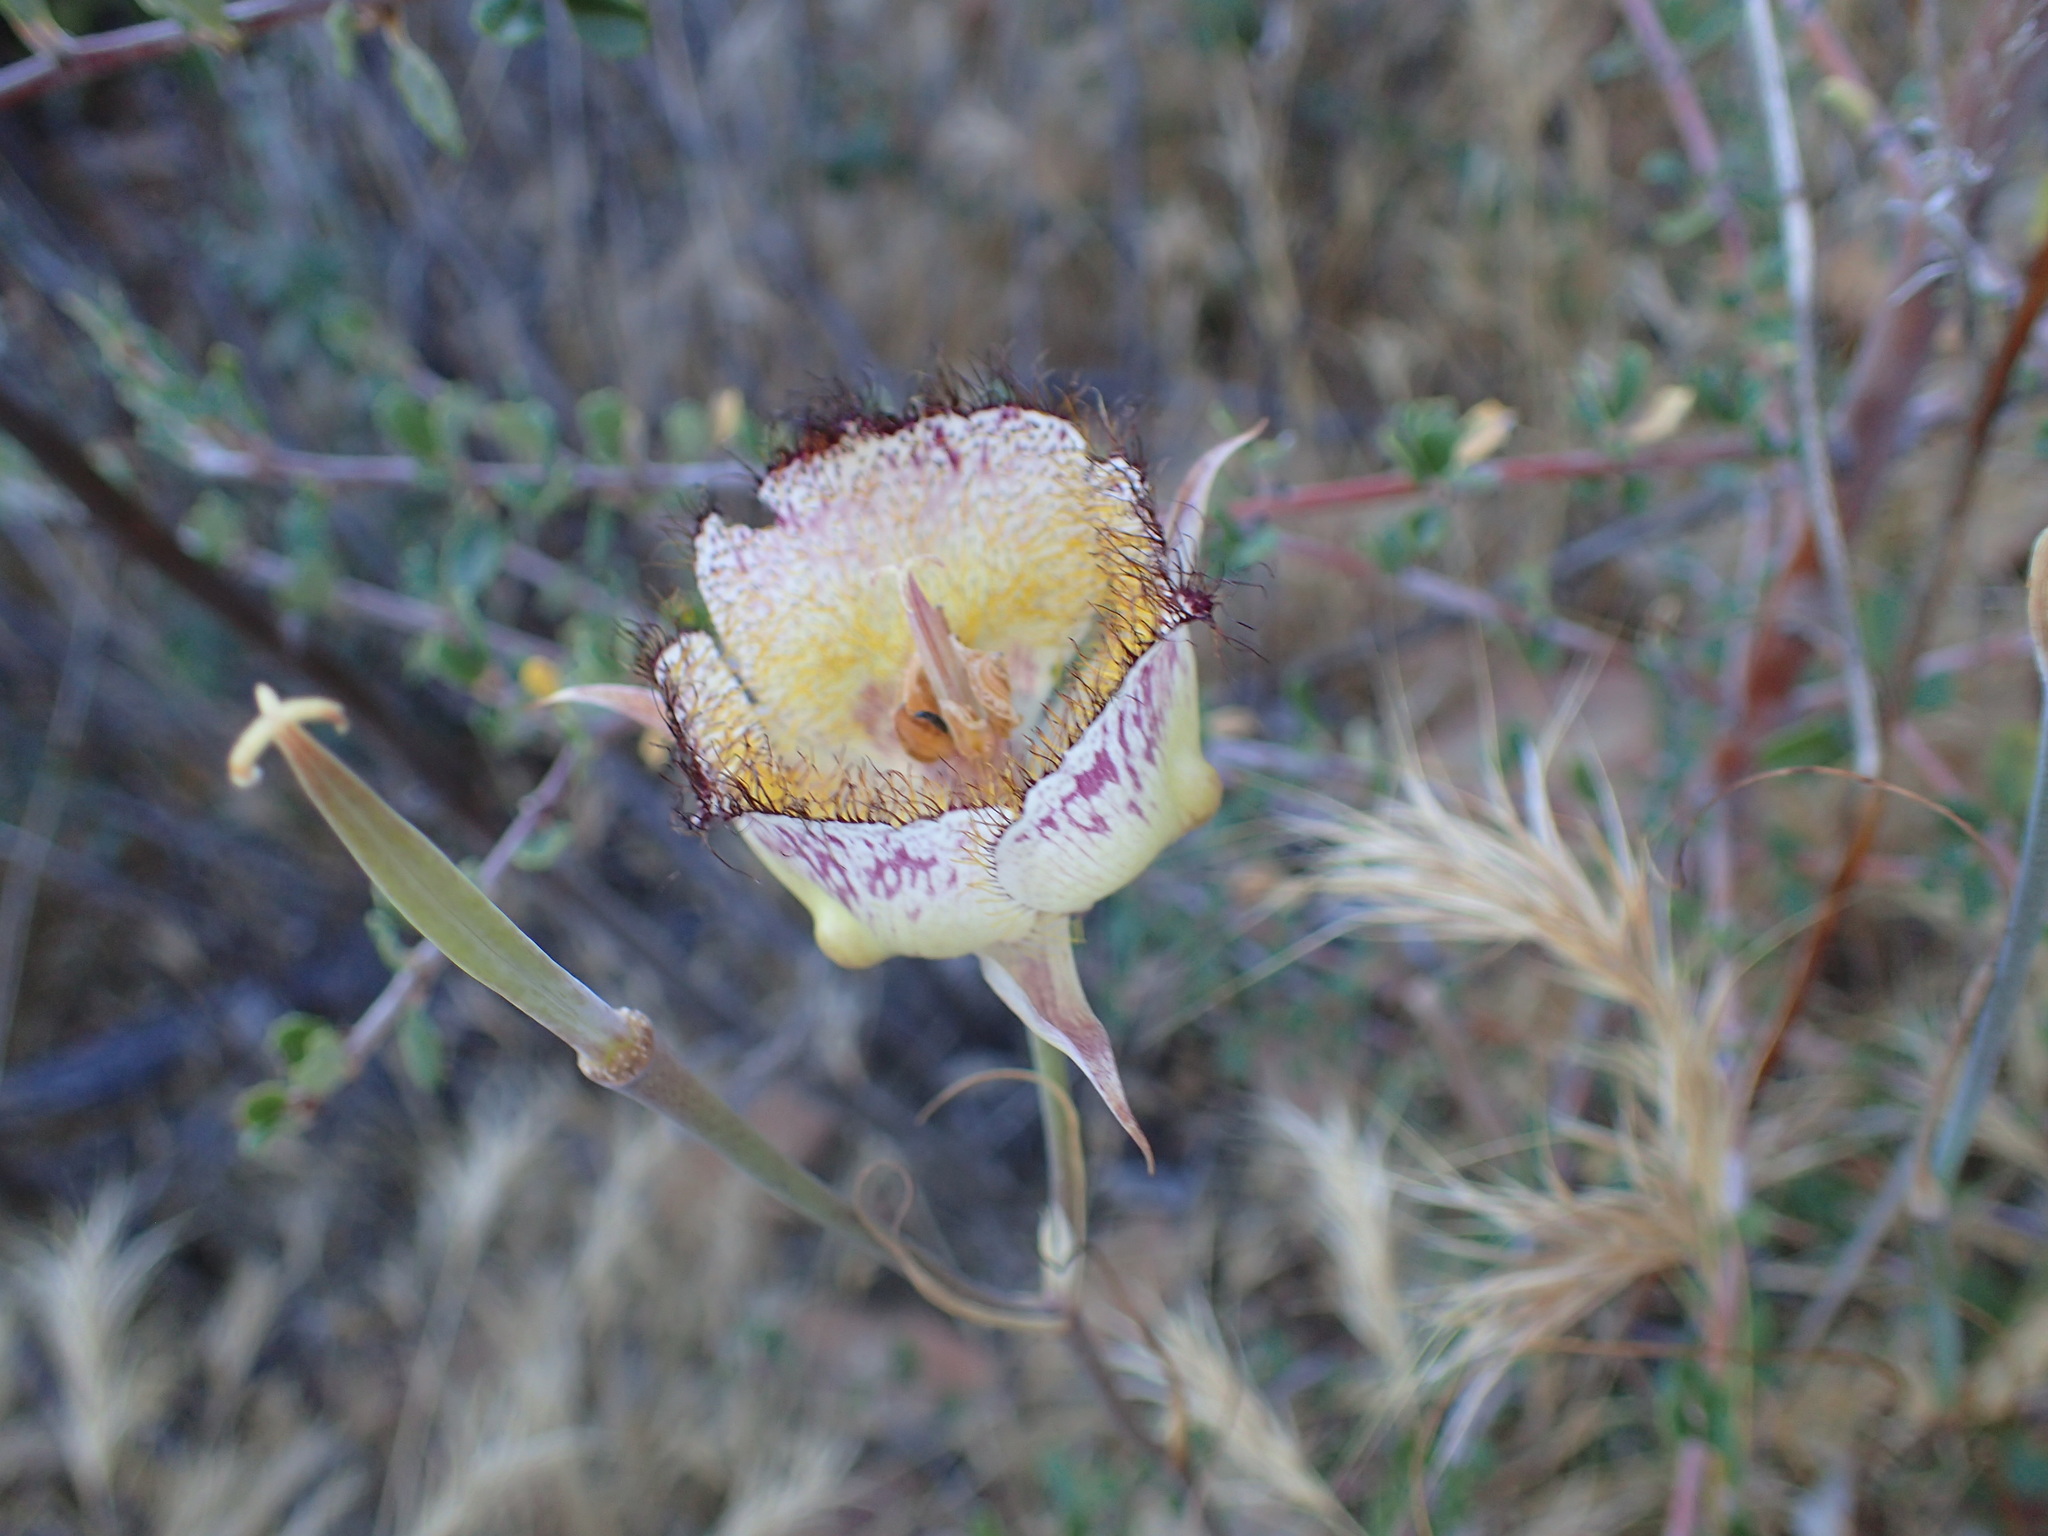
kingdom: Plantae
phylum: Tracheophyta
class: Liliopsida
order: Liliales
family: Liliaceae
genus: Calochortus
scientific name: Calochortus fimbriatus
